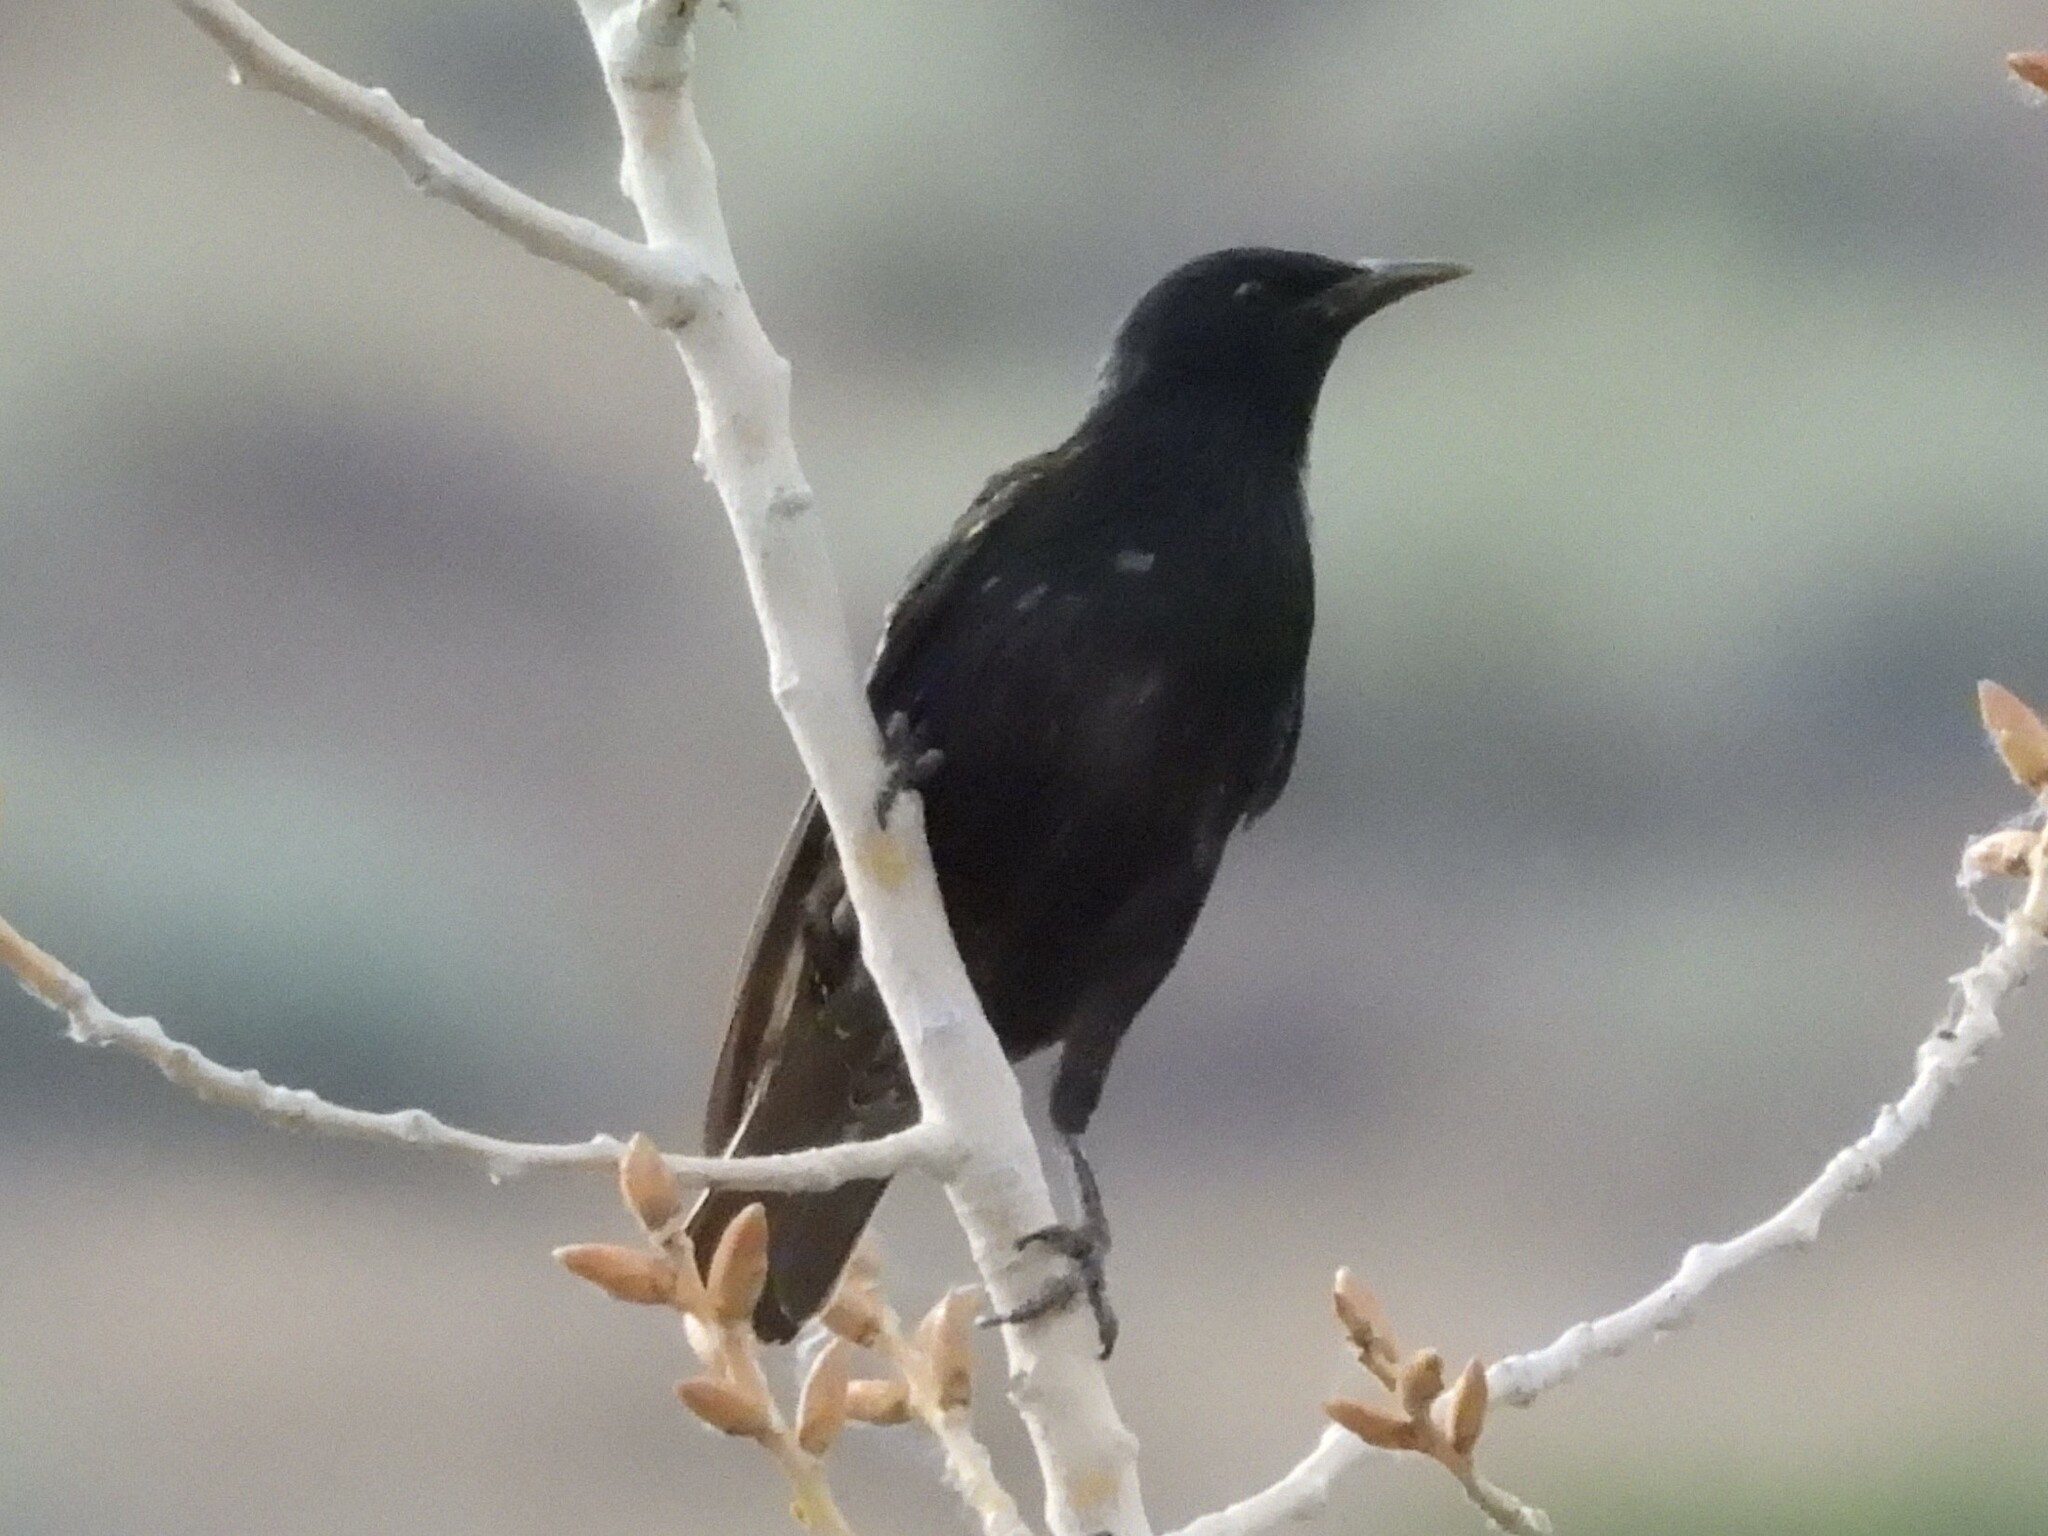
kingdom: Animalia
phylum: Chordata
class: Aves
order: Passeriformes
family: Sturnidae
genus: Sturnus
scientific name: Sturnus vulgaris
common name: Common starling
